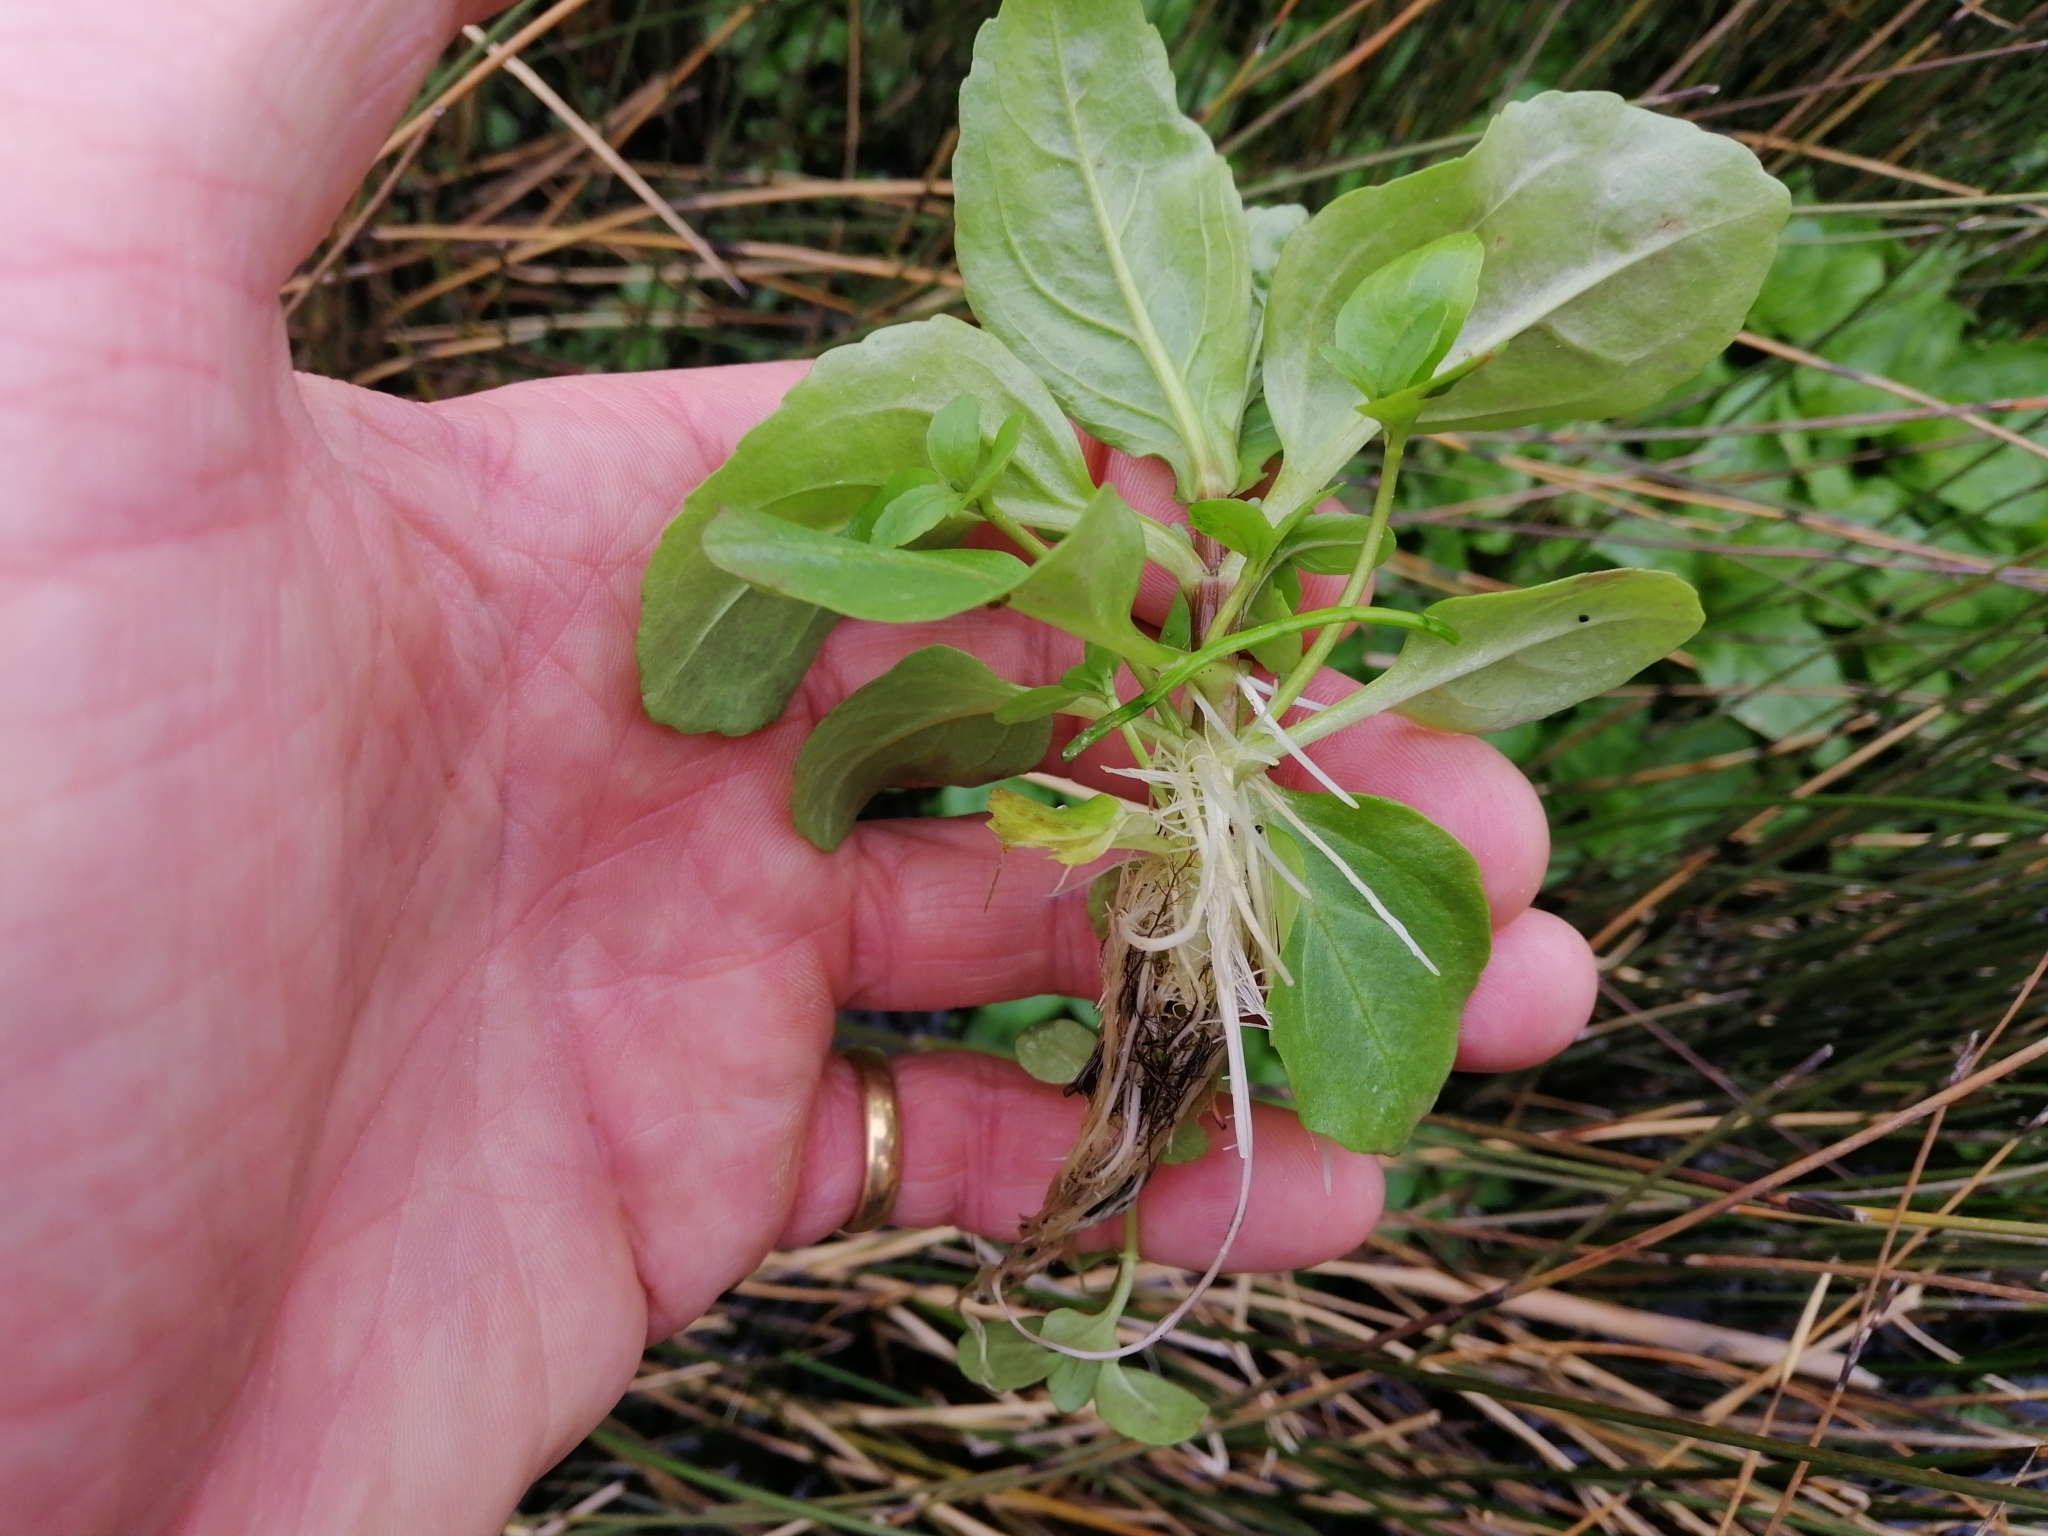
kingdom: Plantae
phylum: Tracheophyta
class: Magnoliopsida
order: Lamiales
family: Phrymaceae
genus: Erythranthe
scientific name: Erythranthe guttata
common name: Monkeyflower
